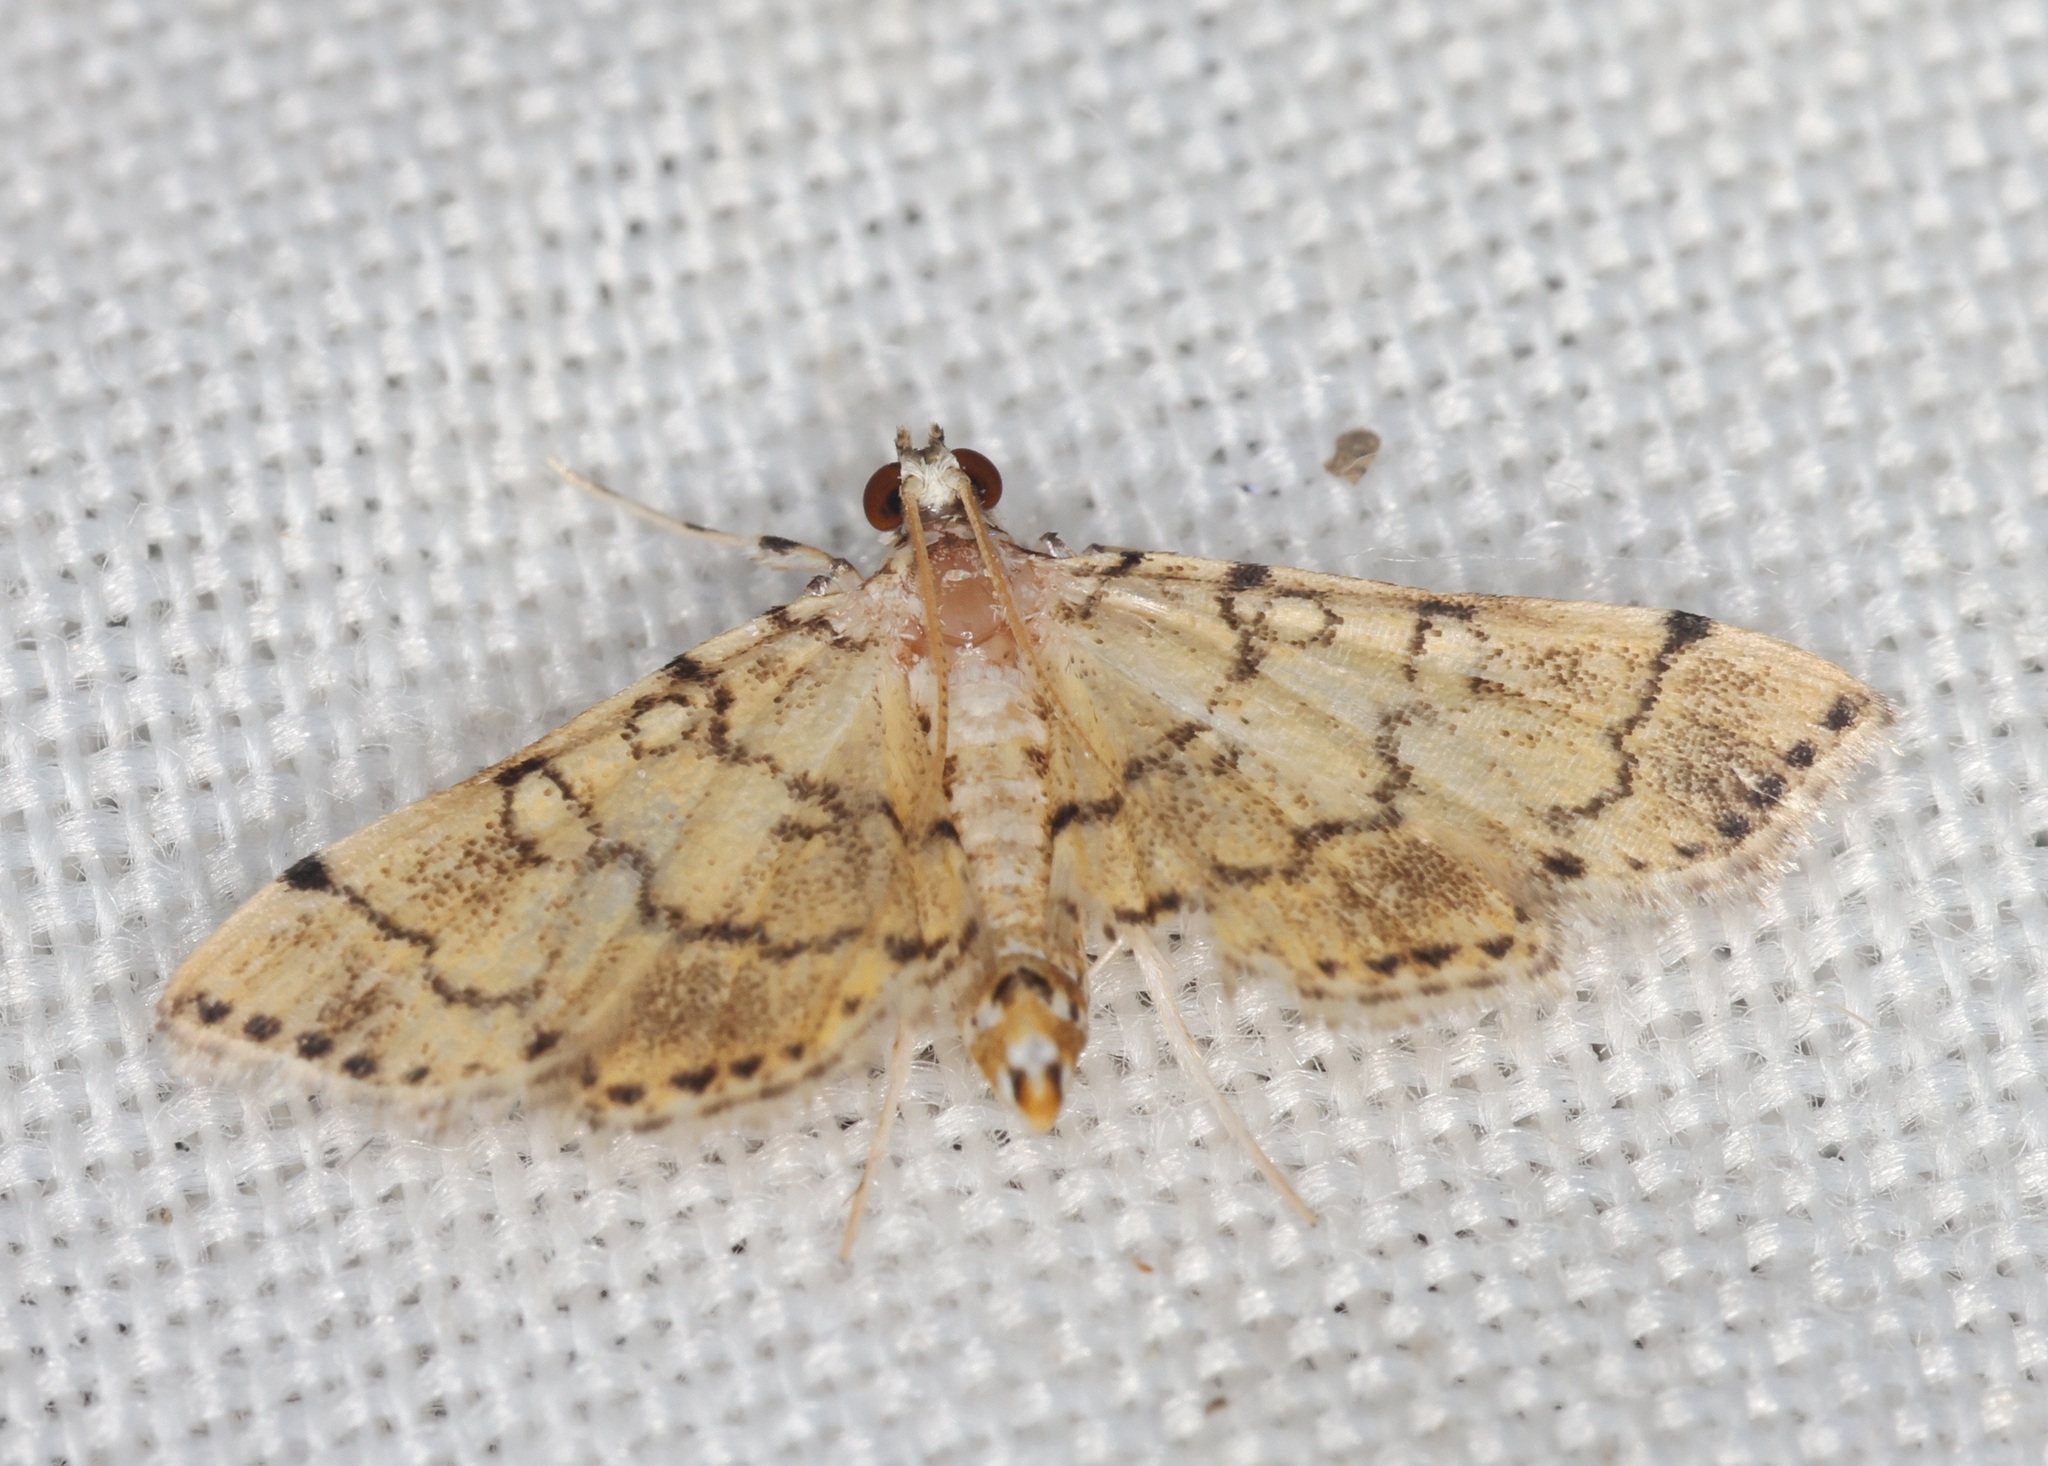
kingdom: Animalia
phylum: Arthropoda
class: Insecta
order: Lepidoptera
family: Crambidae
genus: Lamprosema
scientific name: Lamprosema tampiusalis
